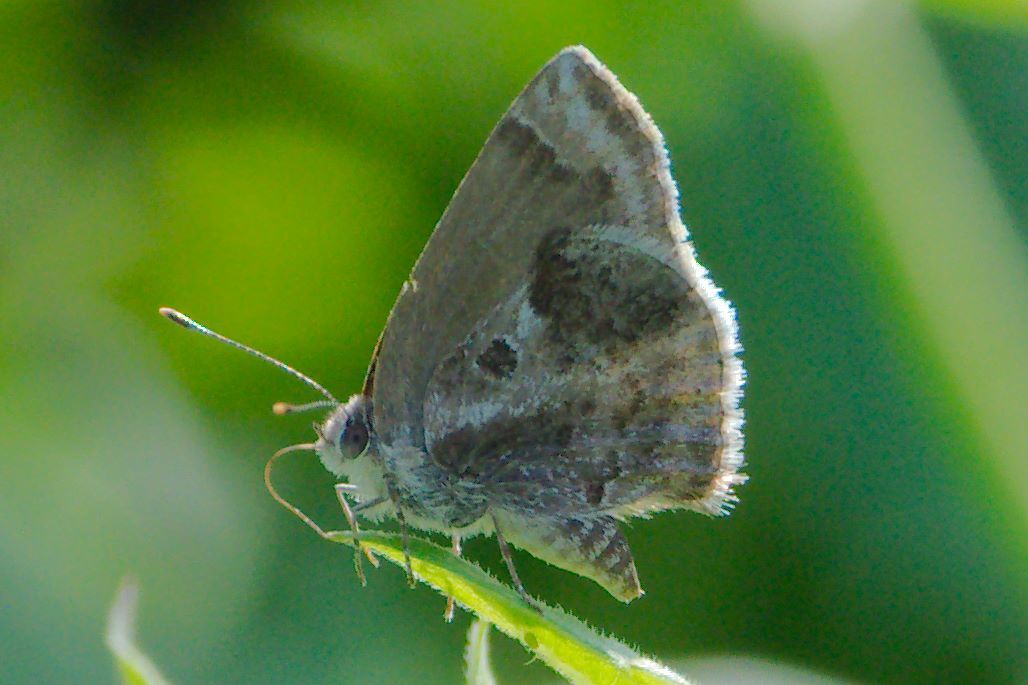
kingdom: Animalia
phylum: Arthropoda
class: Insecta
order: Lepidoptera
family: Lycaenidae
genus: Strymon
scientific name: Strymon bazochii
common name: Lantana scrub-hairstreak
